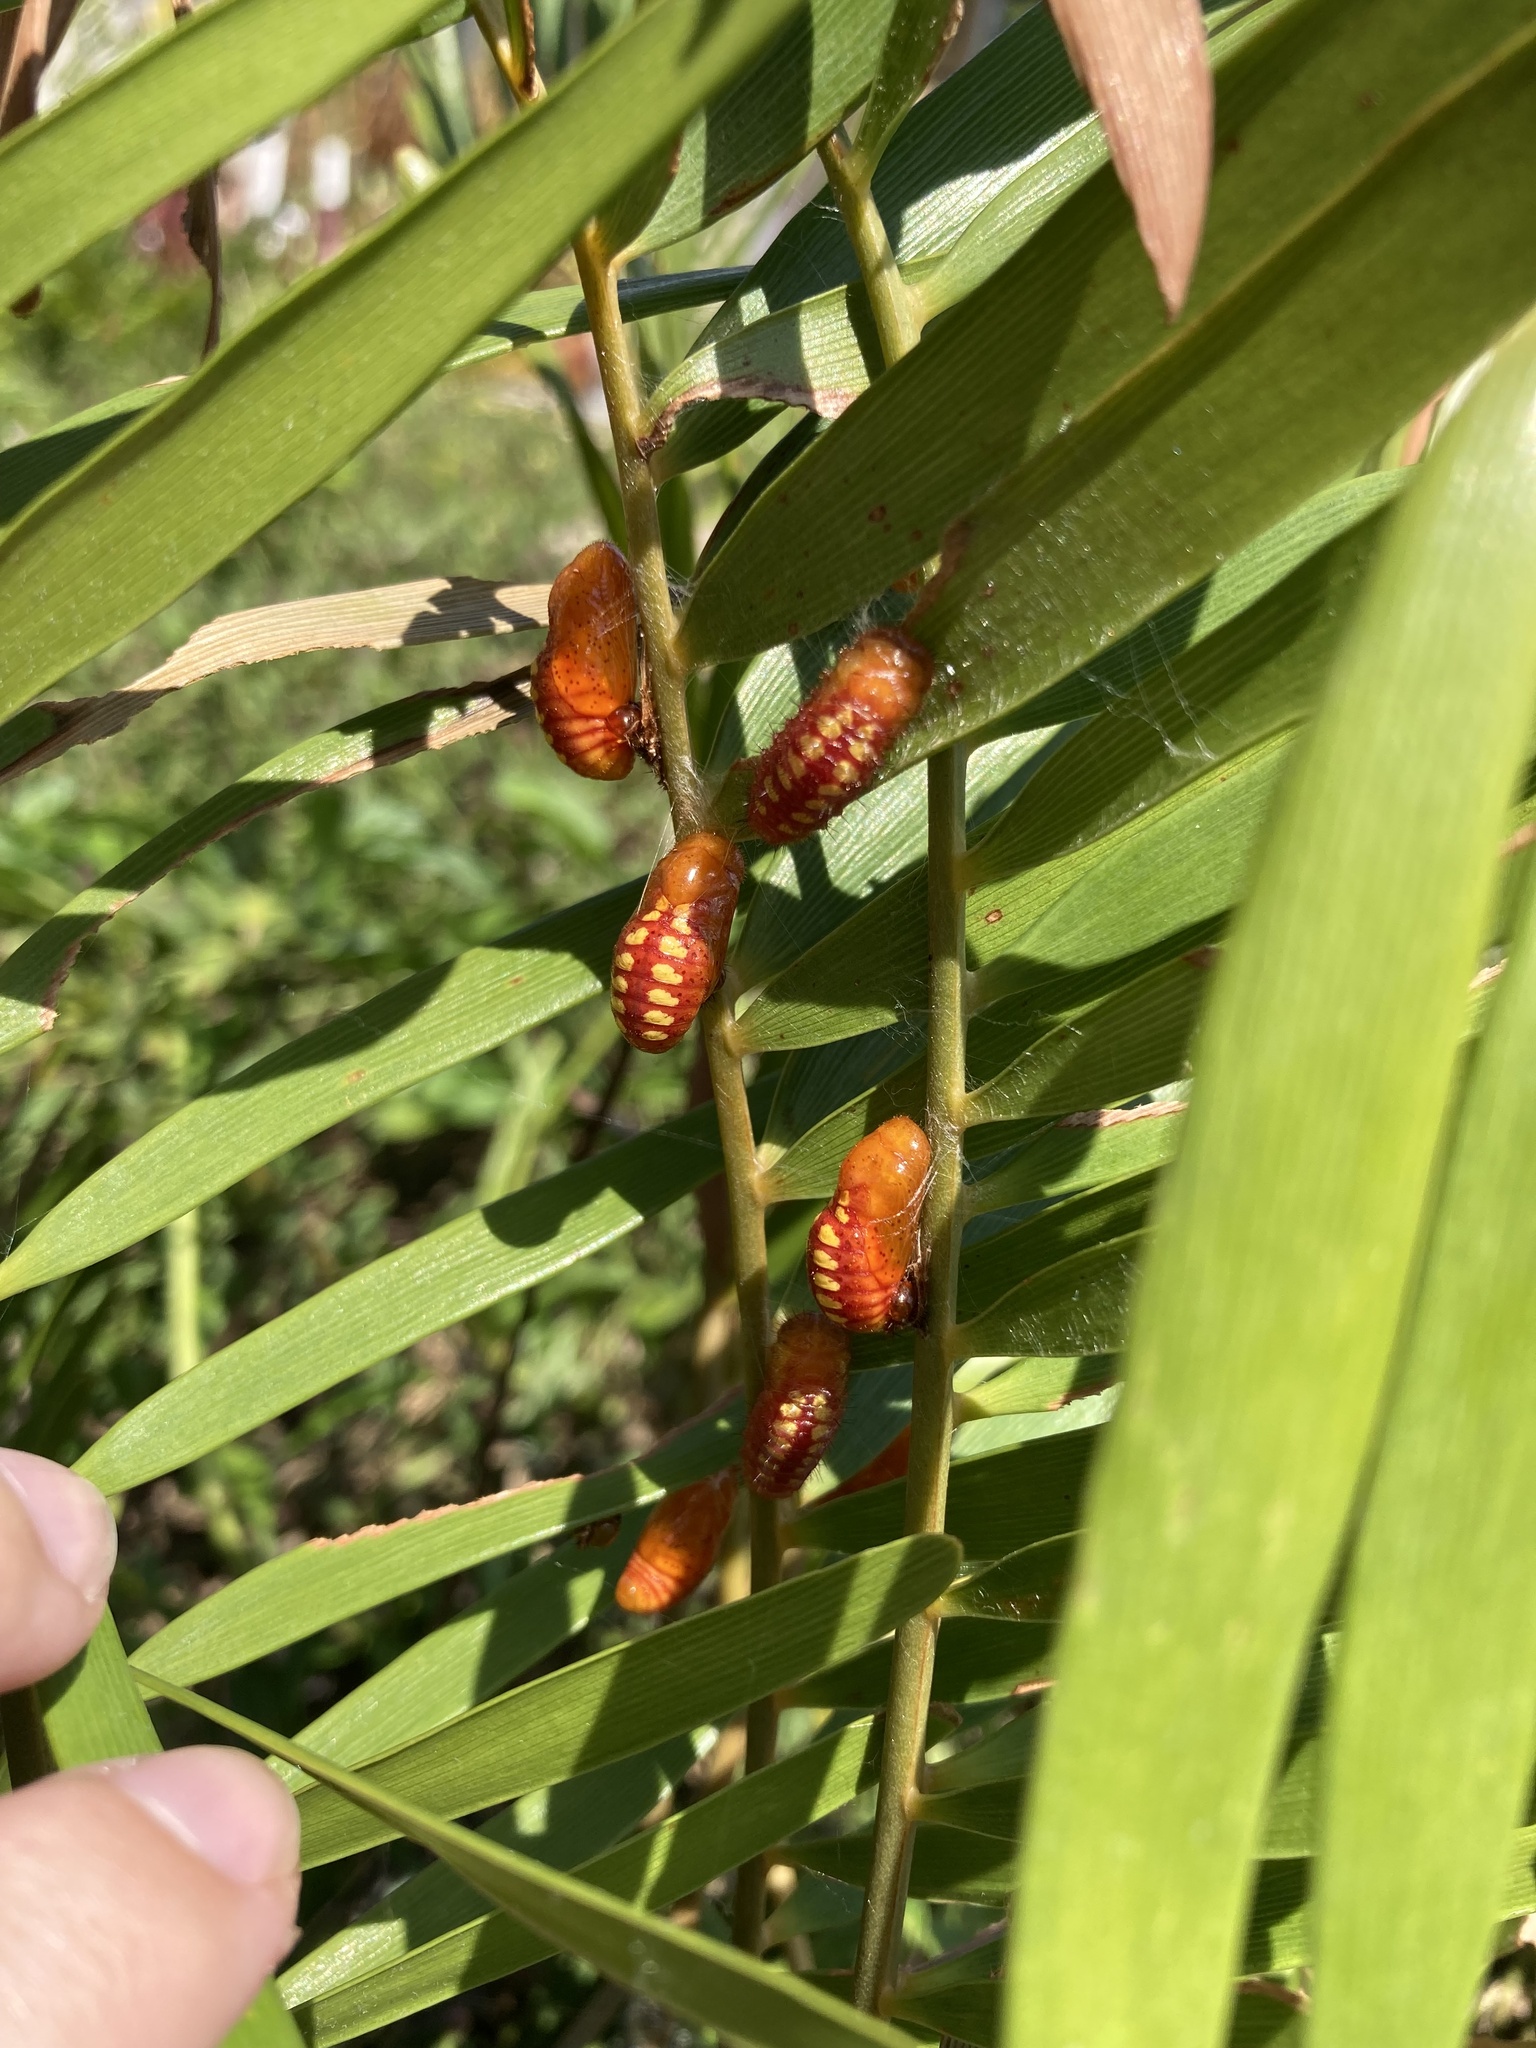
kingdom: Animalia
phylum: Arthropoda
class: Insecta
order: Lepidoptera
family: Lycaenidae
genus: Eumaeus
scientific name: Eumaeus atala
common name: Atala
